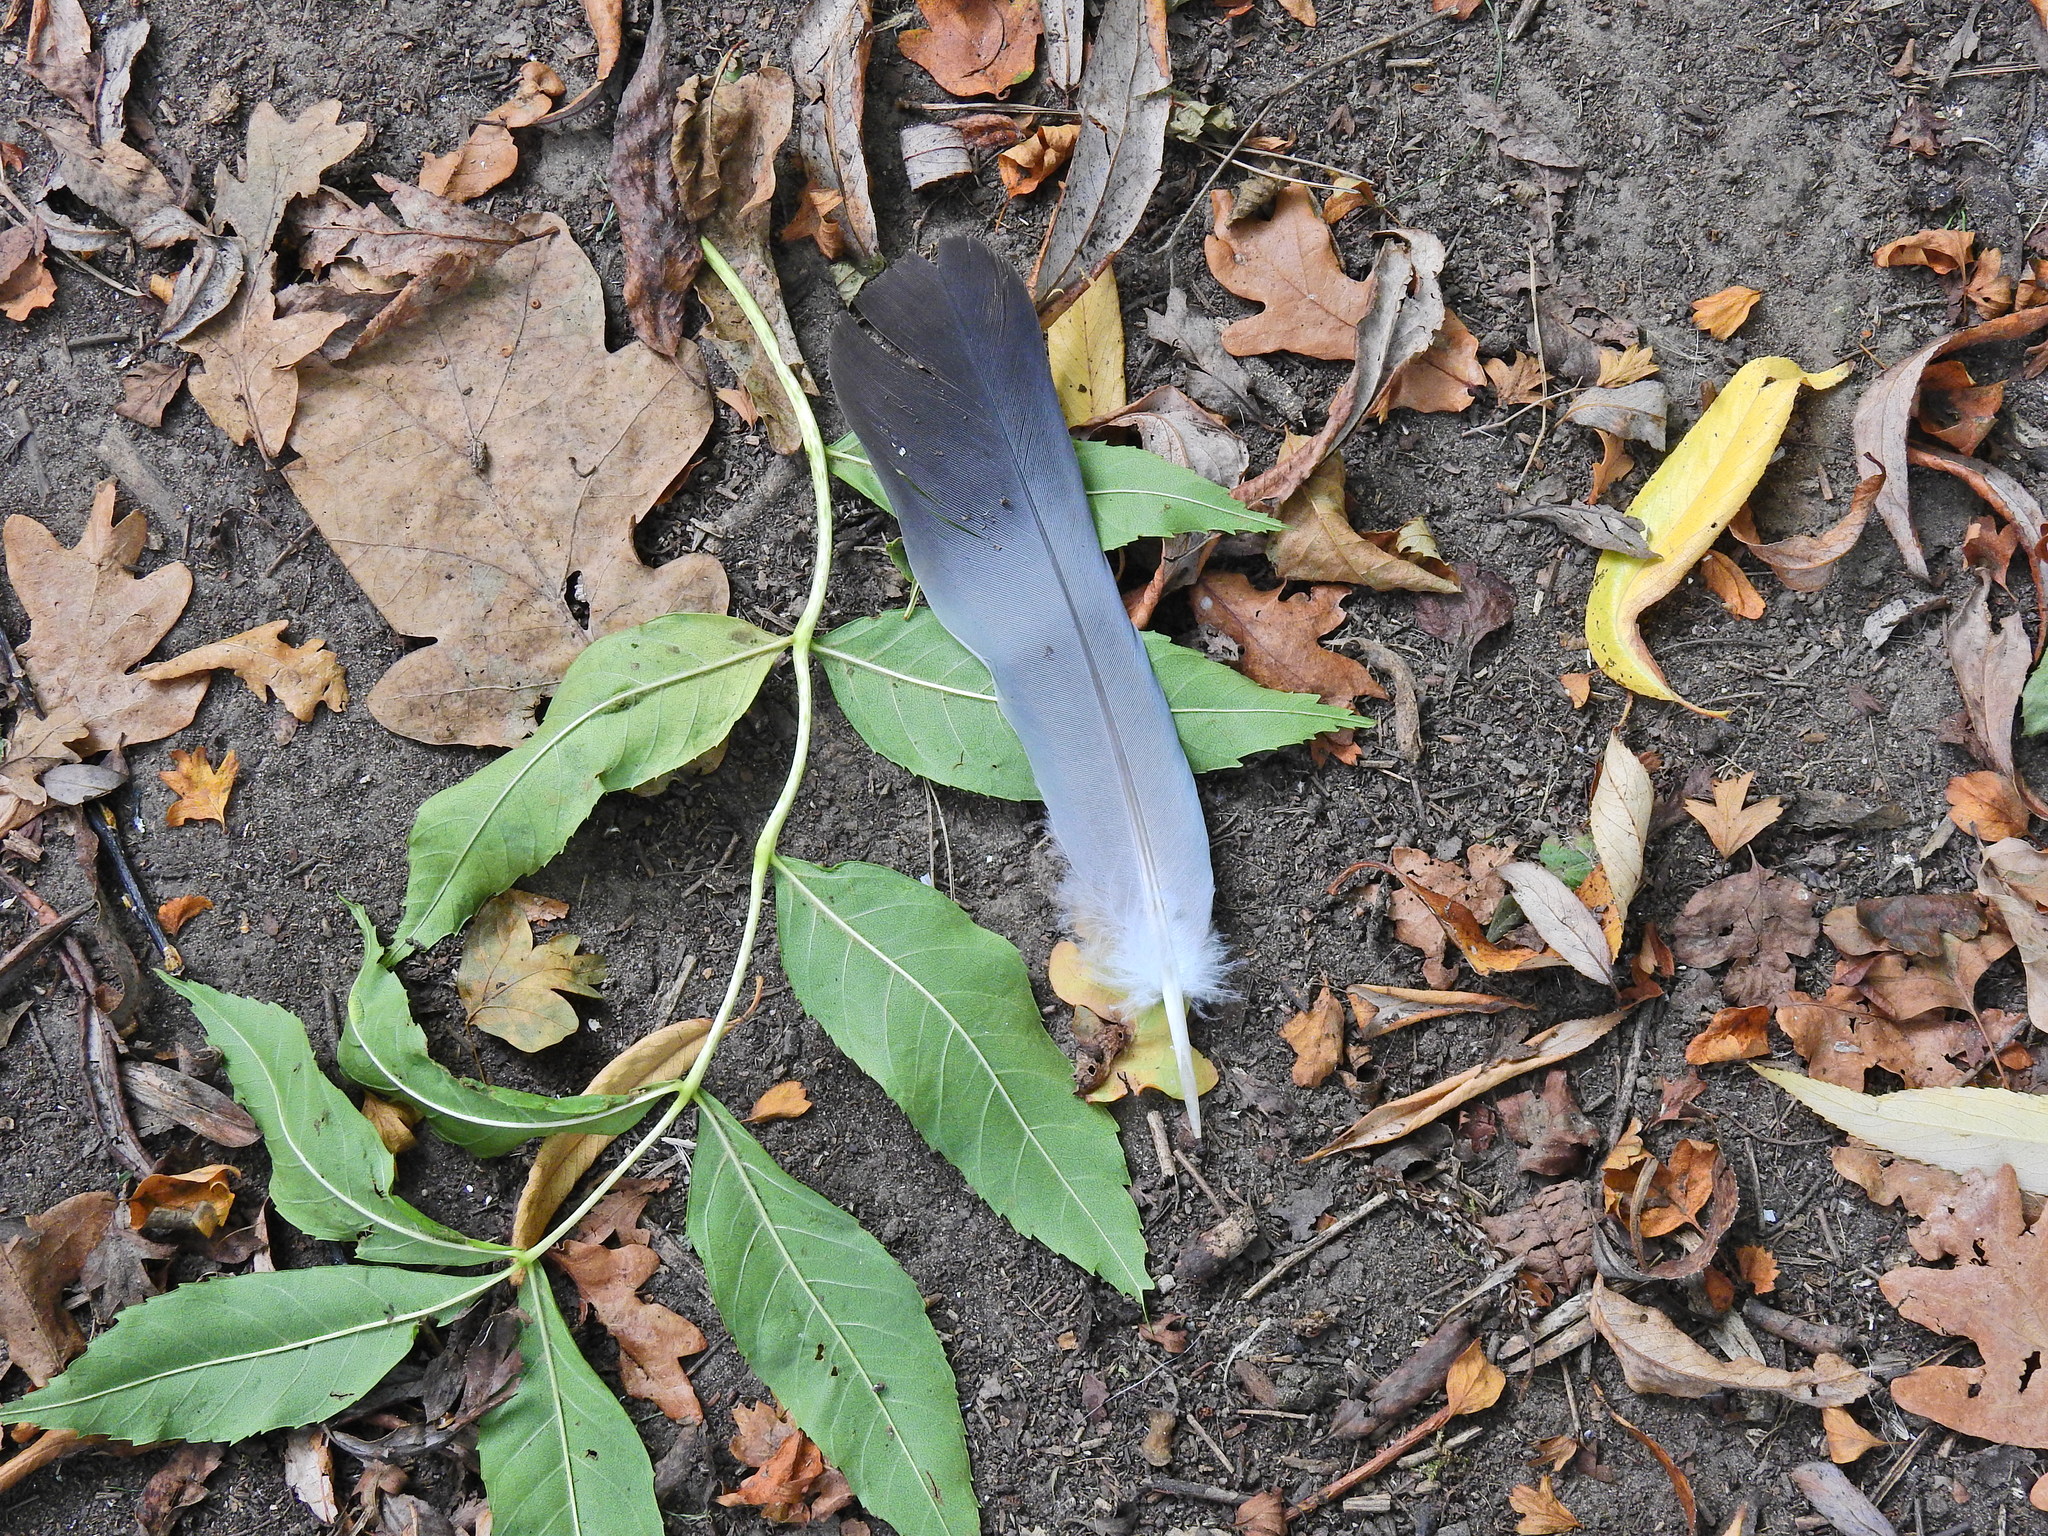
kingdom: Animalia
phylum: Chordata
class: Aves
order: Columbiformes
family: Columbidae
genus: Columba
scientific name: Columba livia
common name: Rock pigeon
